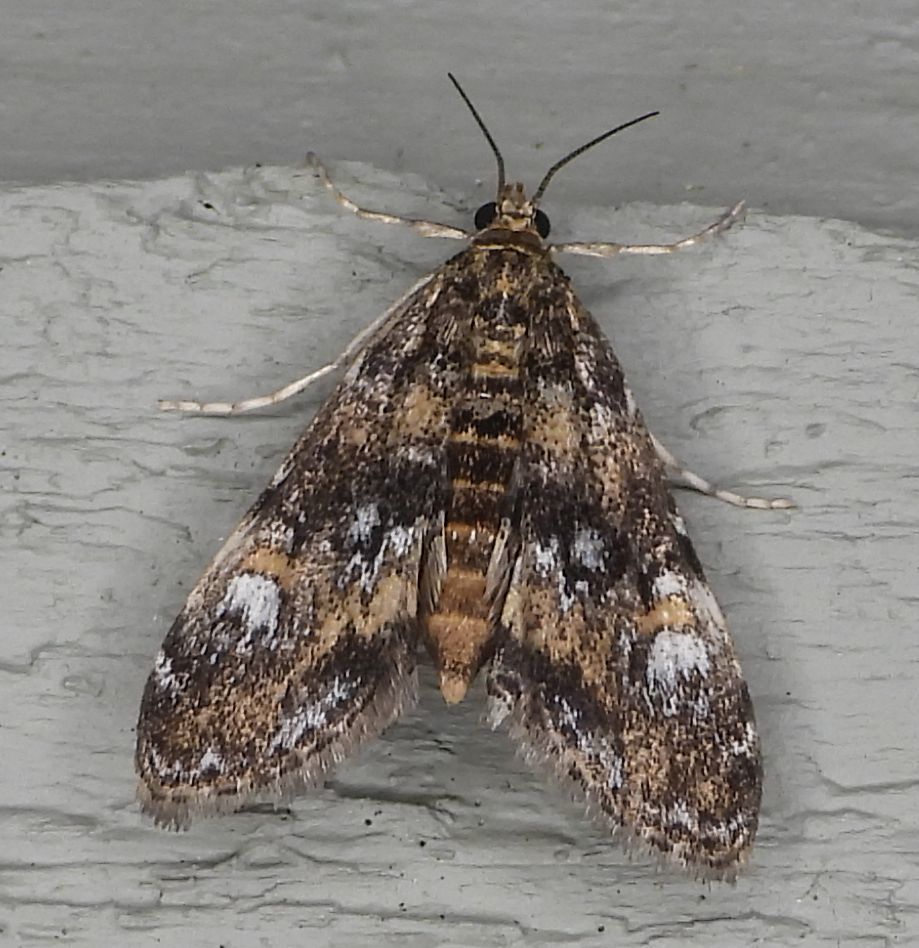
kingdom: Animalia
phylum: Arthropoda
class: Insecta
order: Lepidoptera
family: Crambidae
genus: Elophila
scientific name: Elophila obliteralis
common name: Waterlily leafcutter moth
